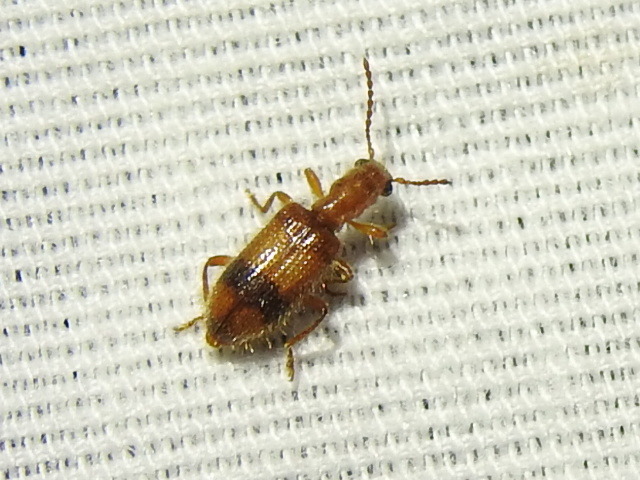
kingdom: Animalia
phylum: Arthropoda
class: Insecta
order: Coleoptera
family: Cleridae
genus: Cymatodera
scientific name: Cymatodera puncticollis
